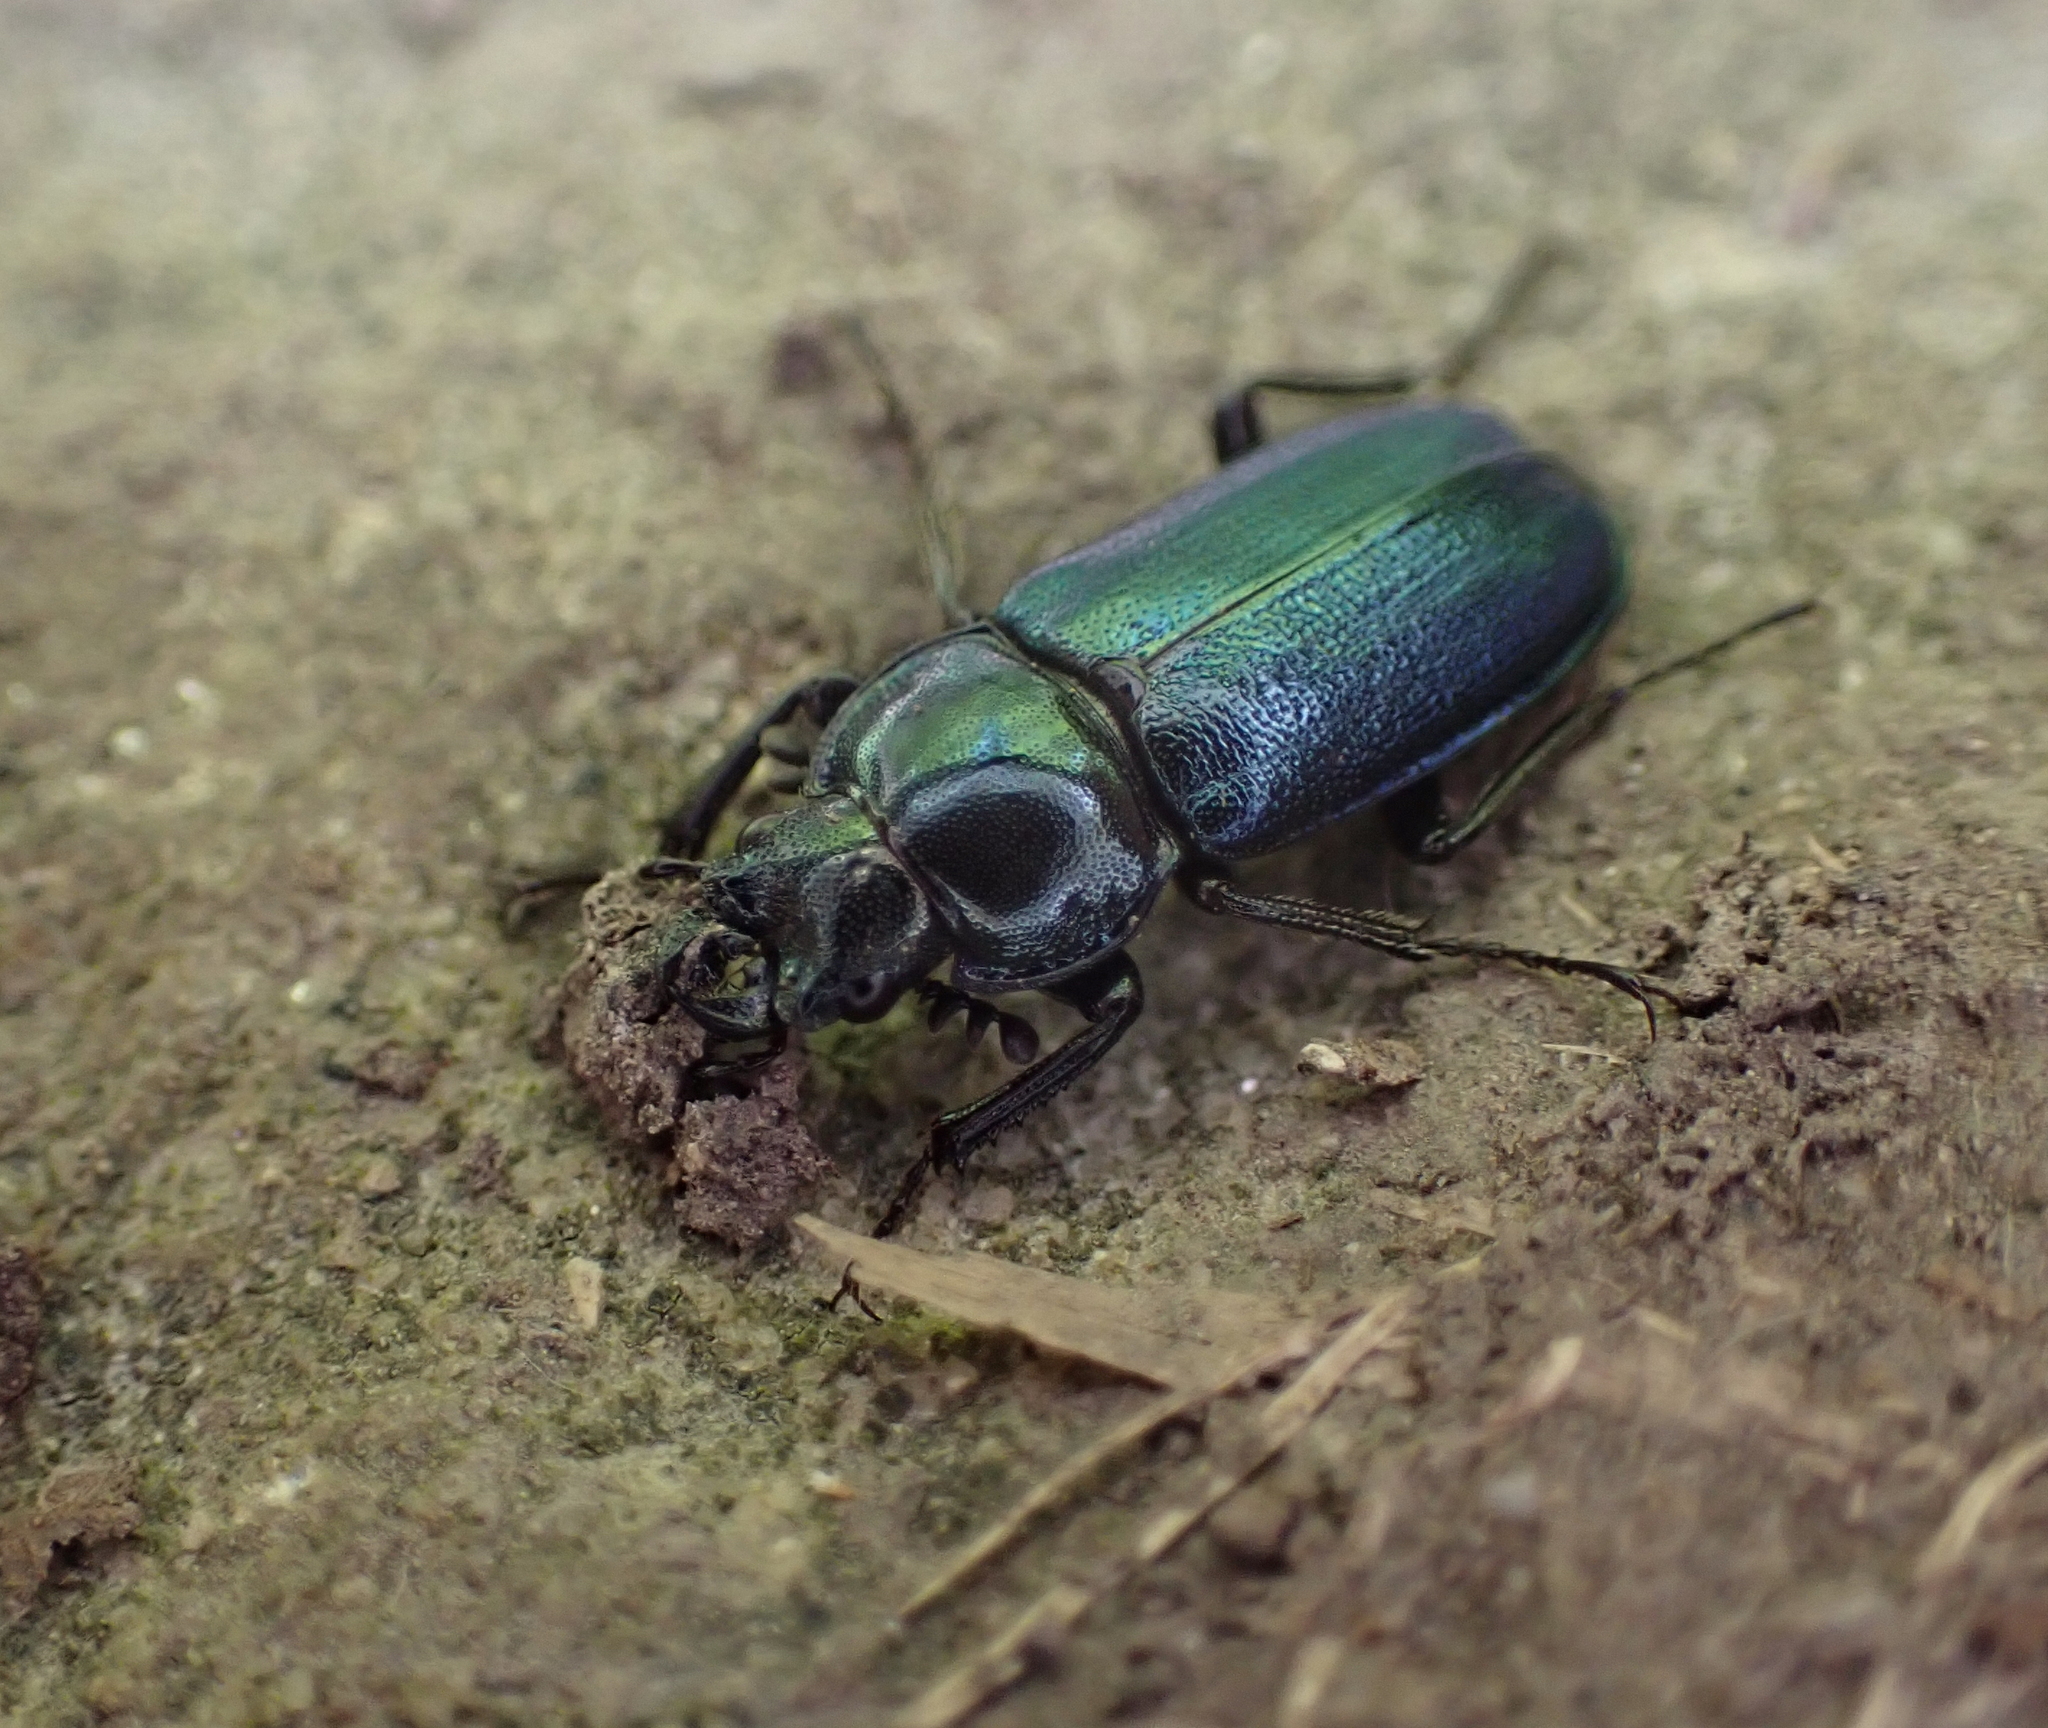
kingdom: Animalia
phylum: Arthropoda
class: Insecta
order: Coleoptera
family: Lucanidae
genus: Platycerus
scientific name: Platycerus caraboides
